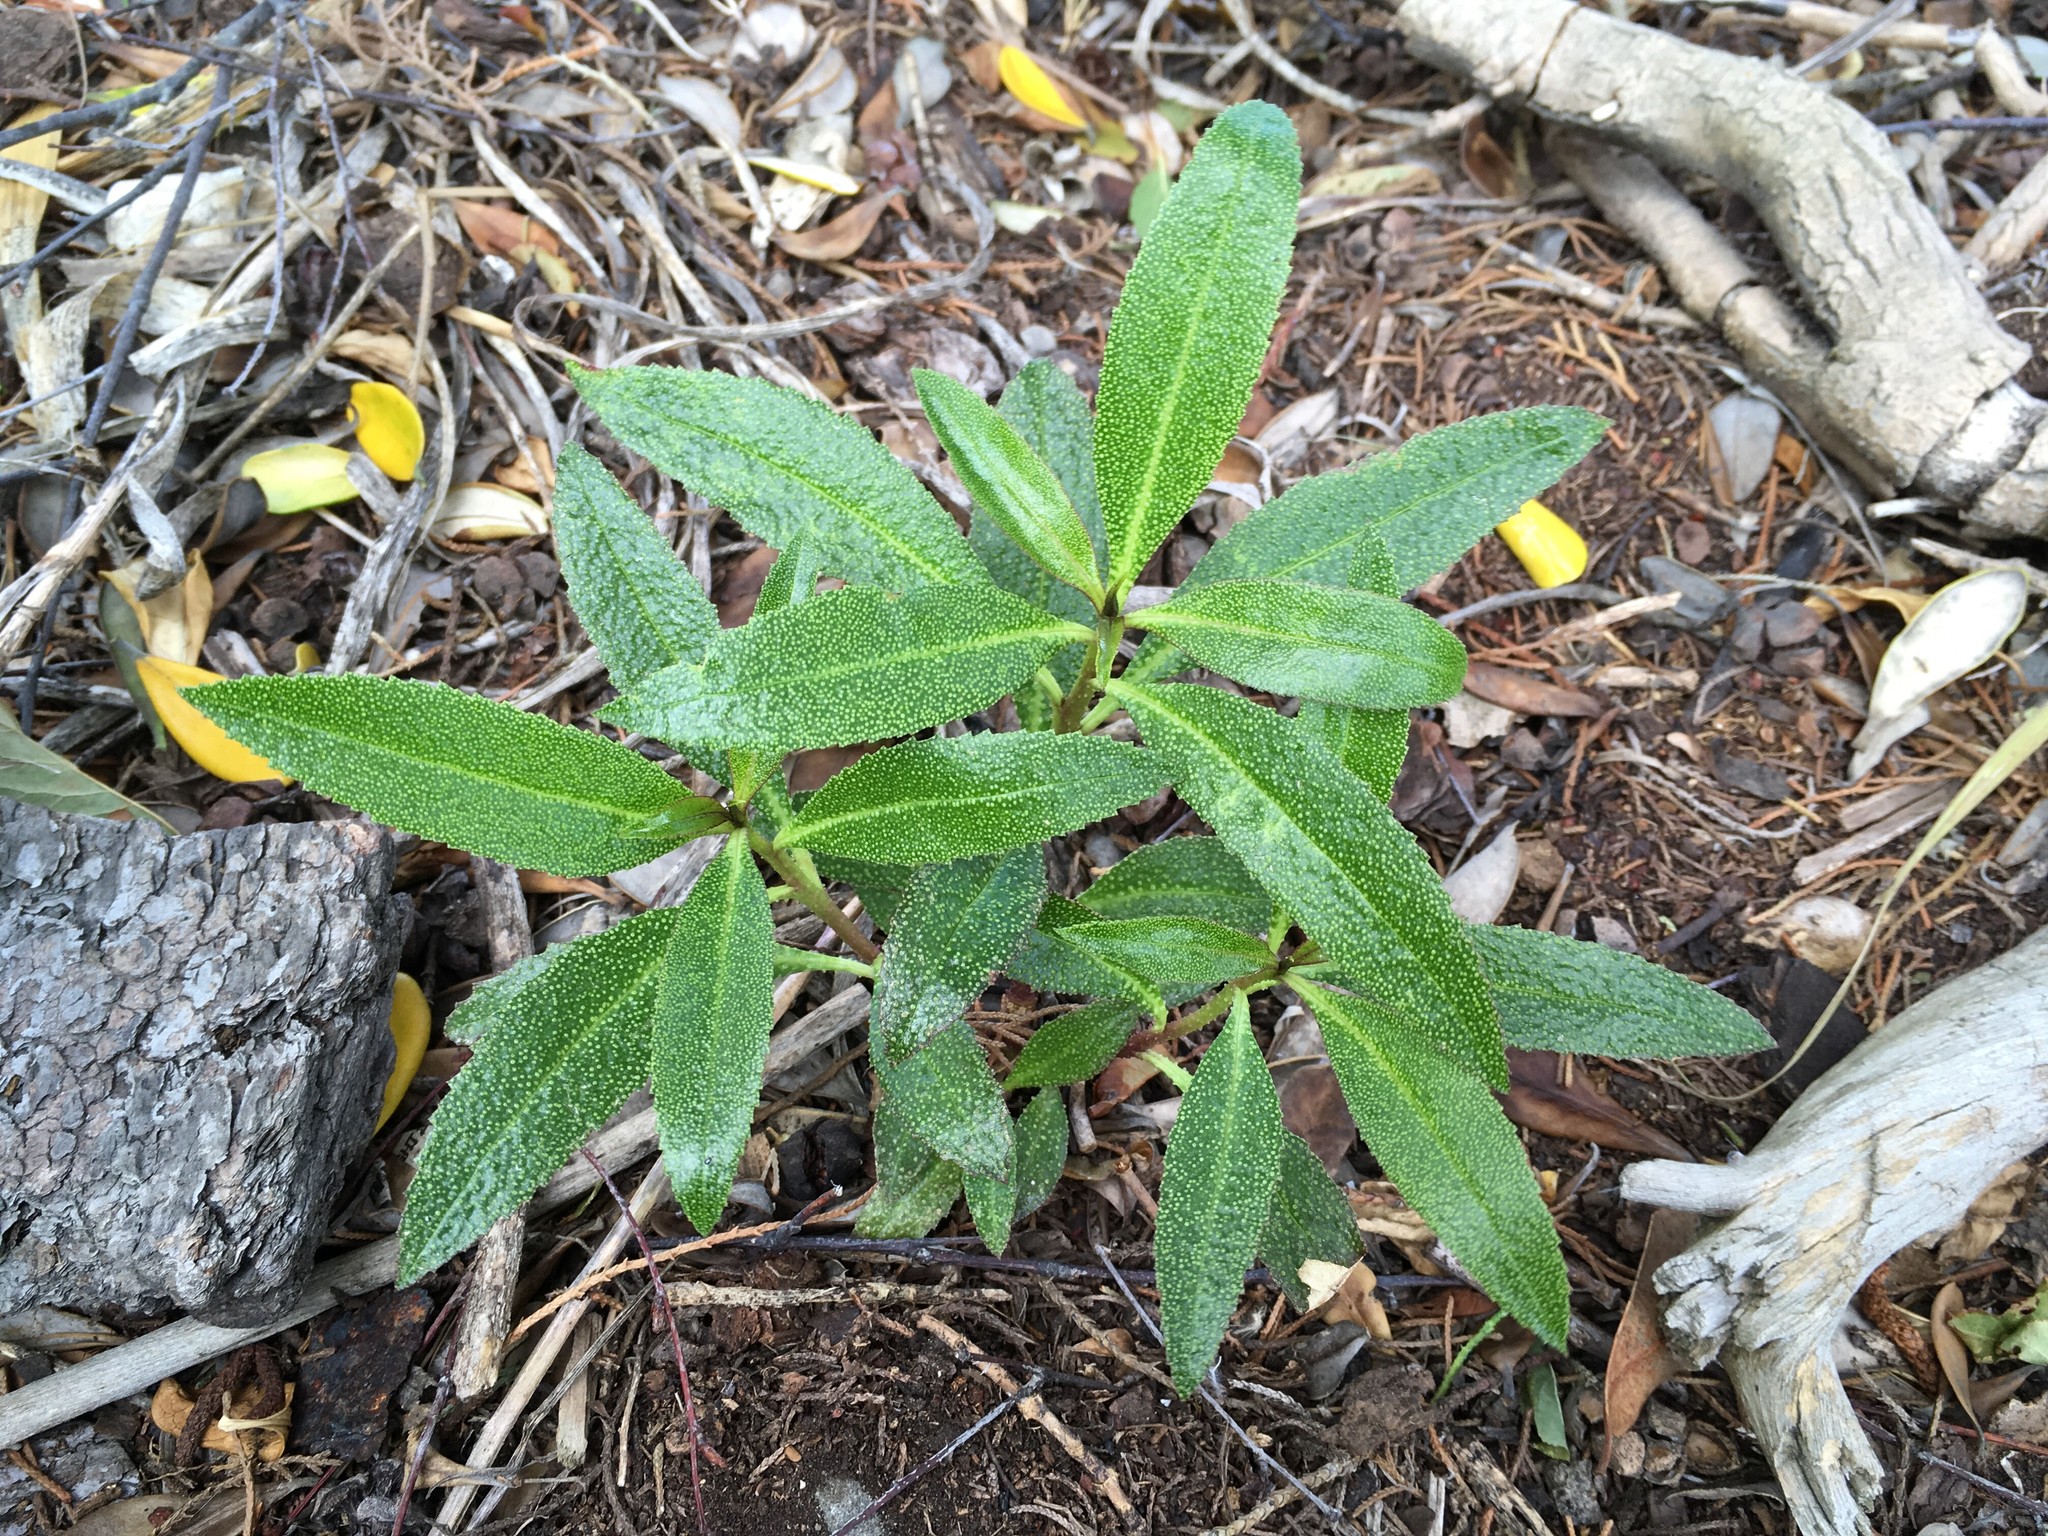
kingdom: Plantae
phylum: Tracheophyta
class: Magnoliopsida
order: Lamiales
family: Scrophulariaceae
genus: Myoporum
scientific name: Myoporum laetum
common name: Ngaio tree
